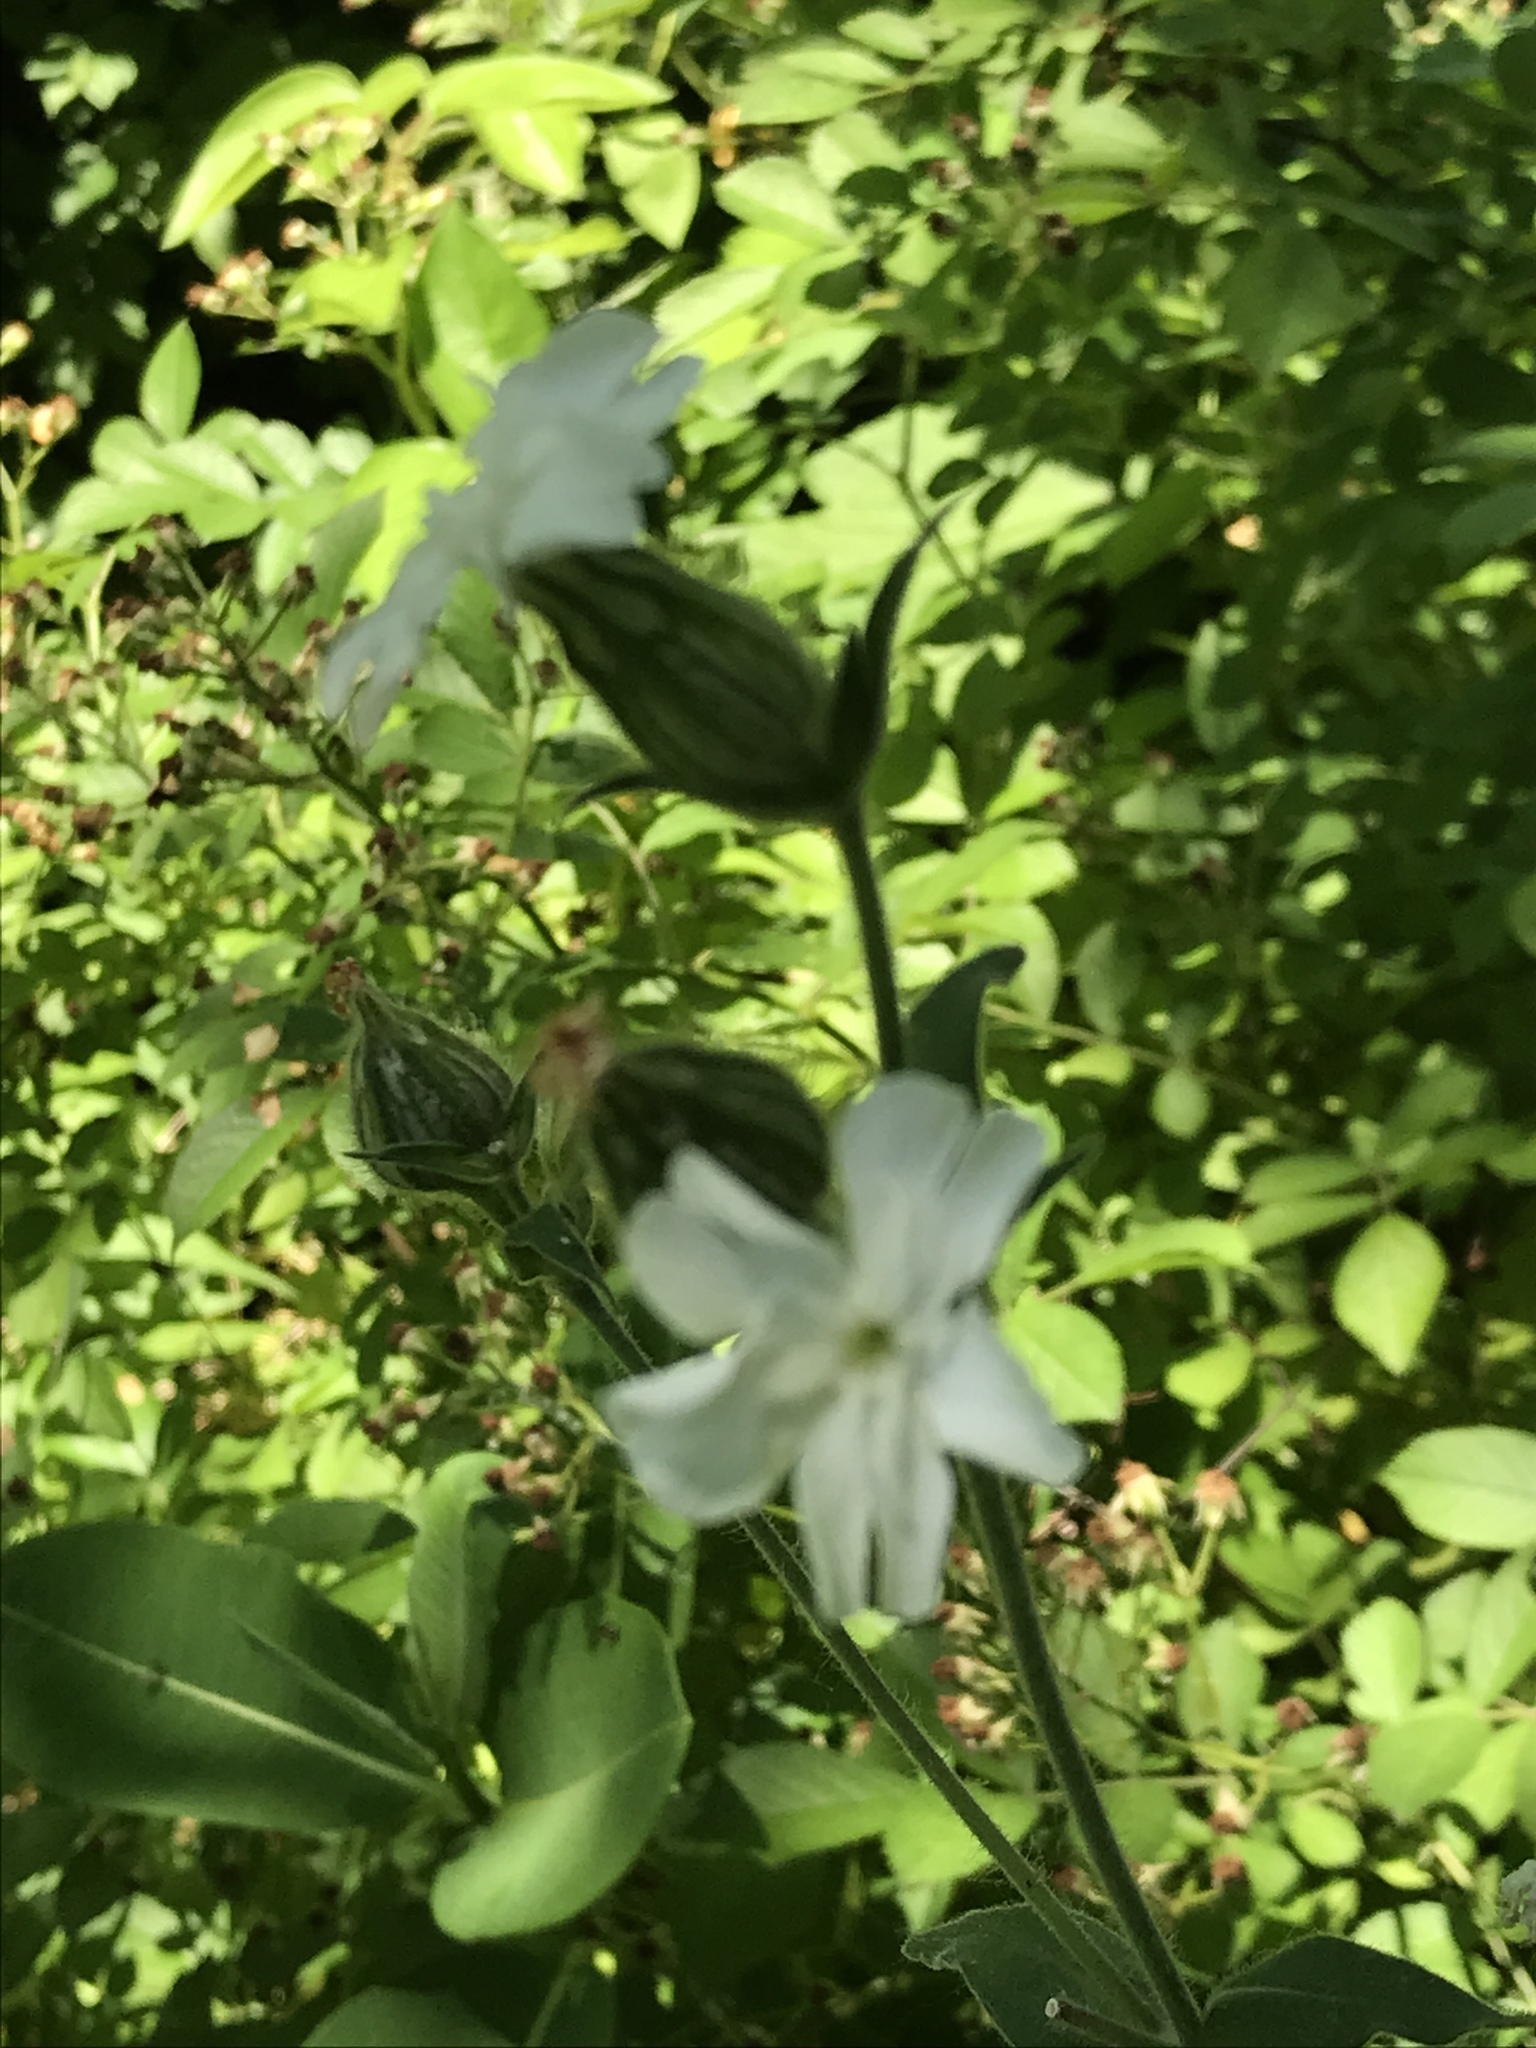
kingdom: Plantae
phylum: Tracheophyta
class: Magnoliopsida
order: Caryophyllales
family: Caryophyllaceae
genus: Silene
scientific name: Silene latifolia
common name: White campion
